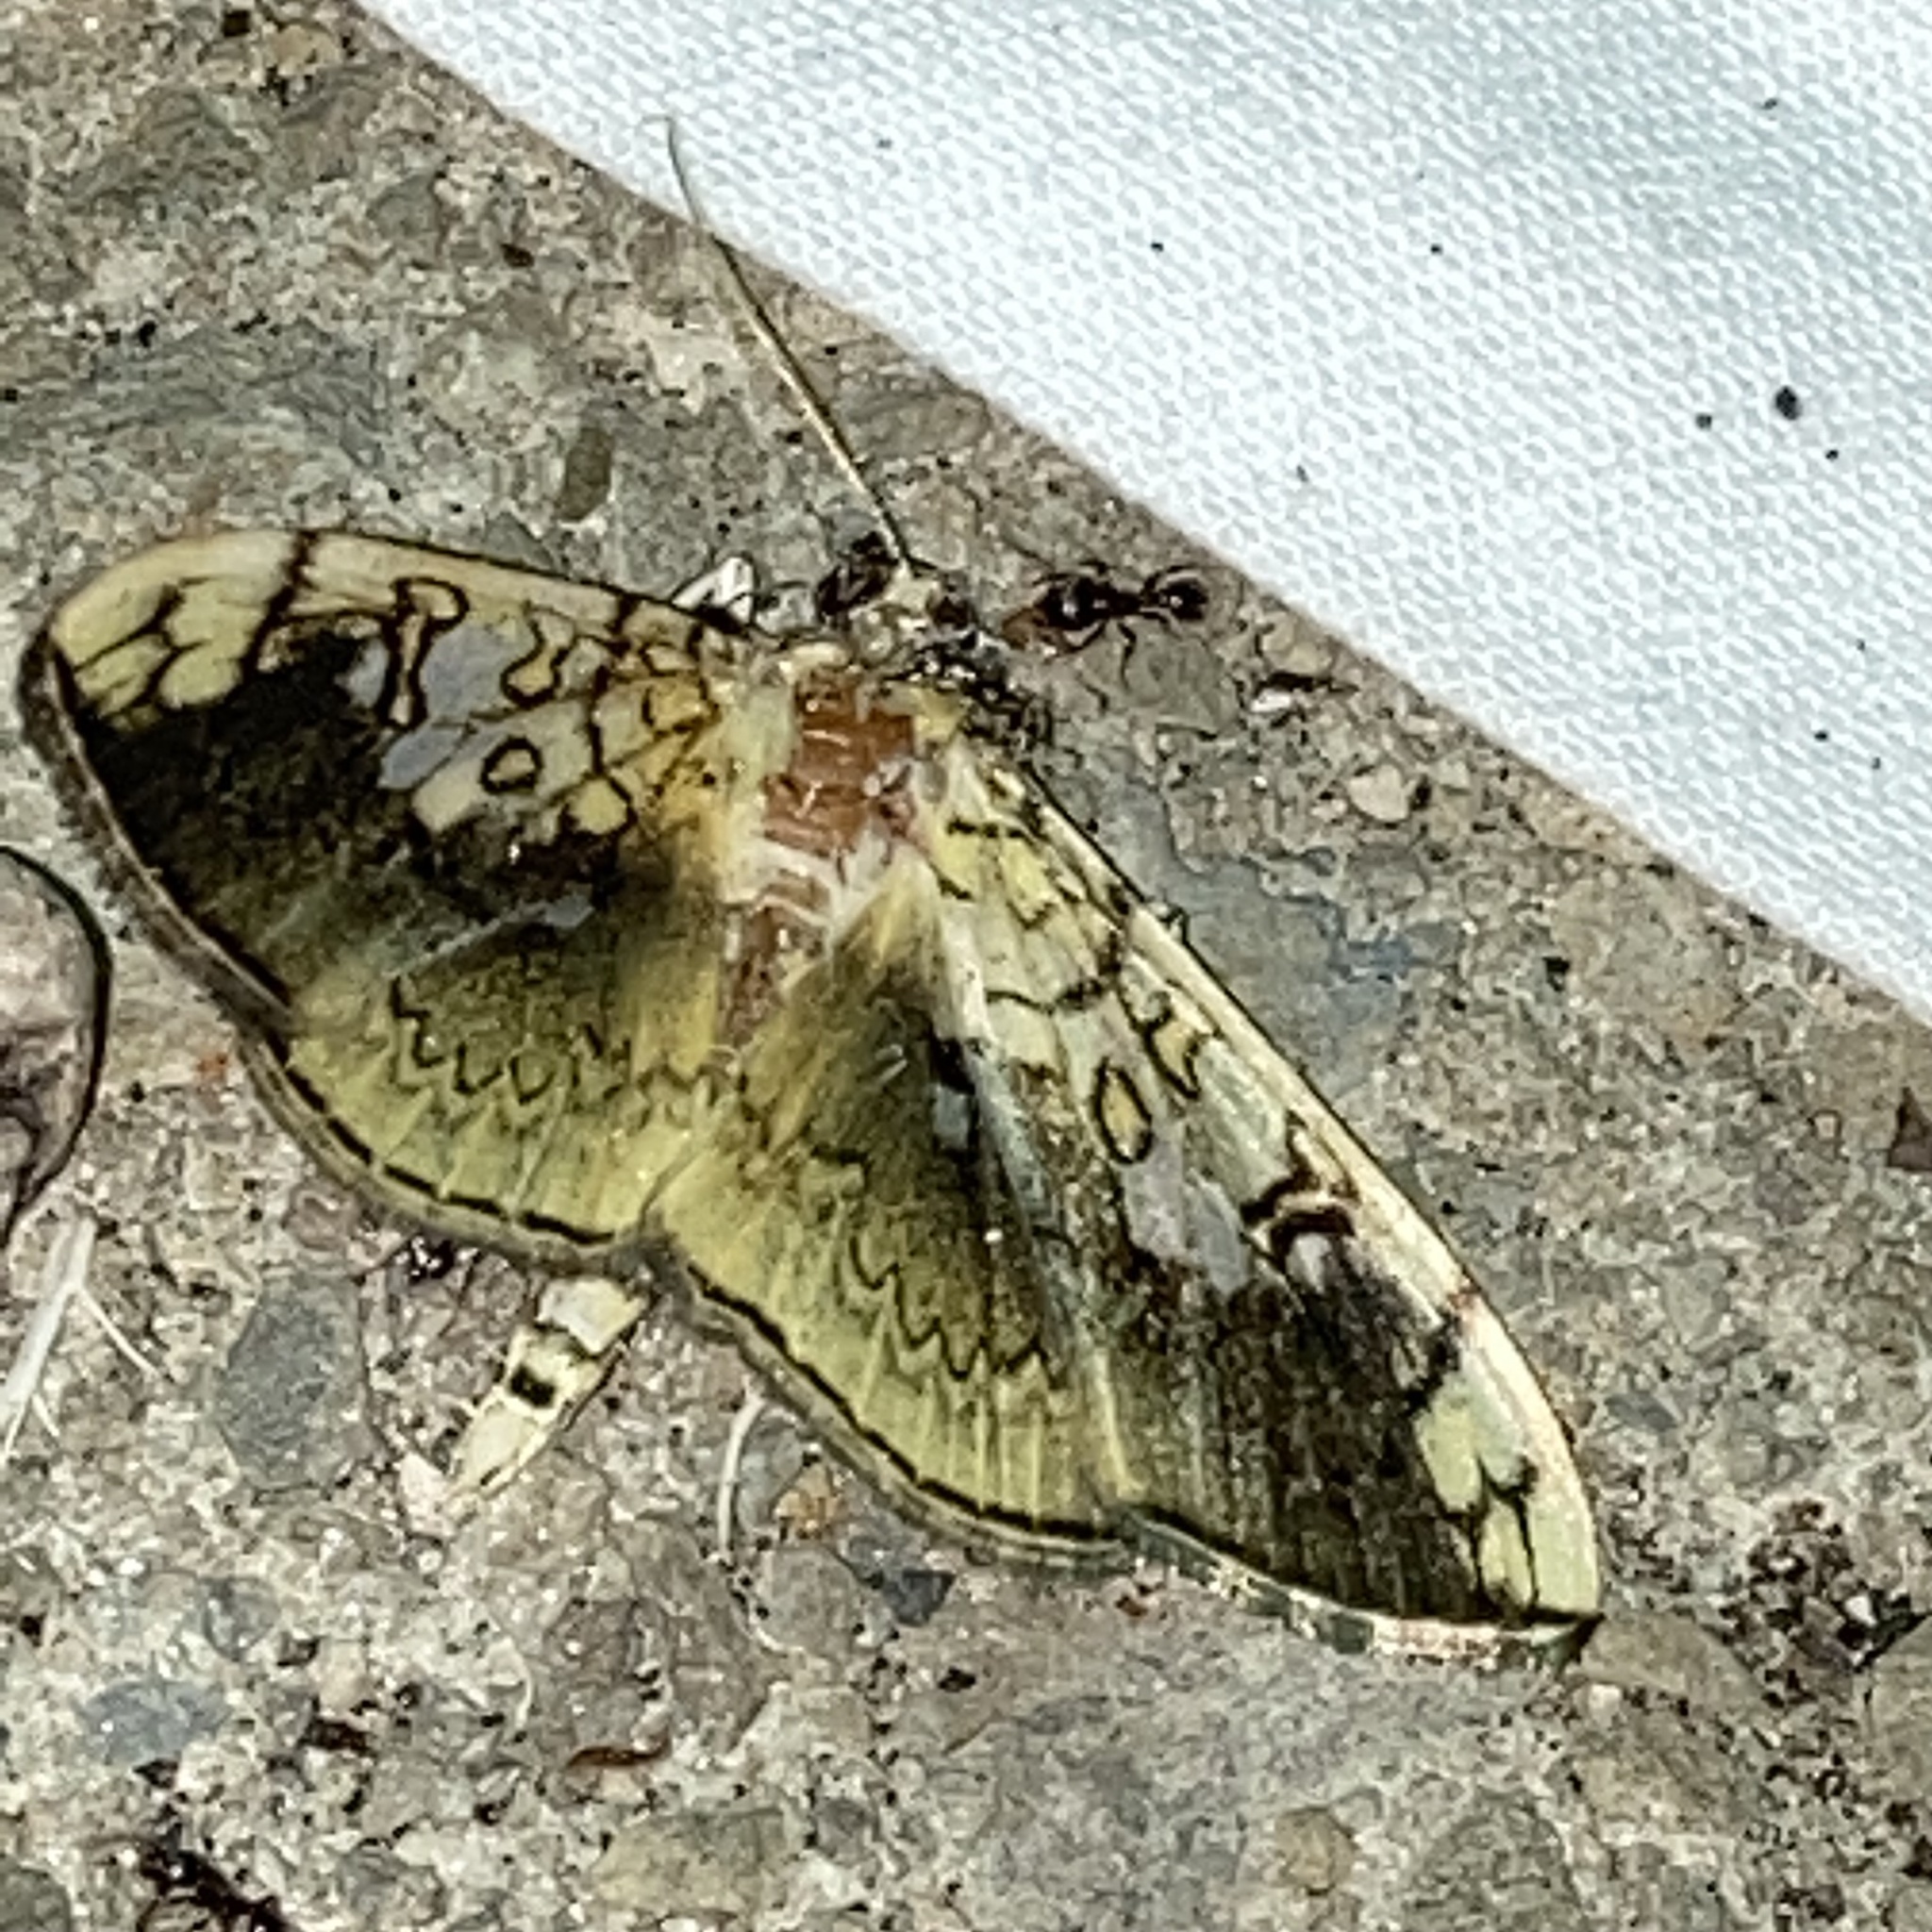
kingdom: Animalia
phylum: Arthropoda
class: Insecta
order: Lepidoptera
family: Crambidae
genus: Pantographa
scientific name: Pantographa limata
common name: Basswood leafroller moth
